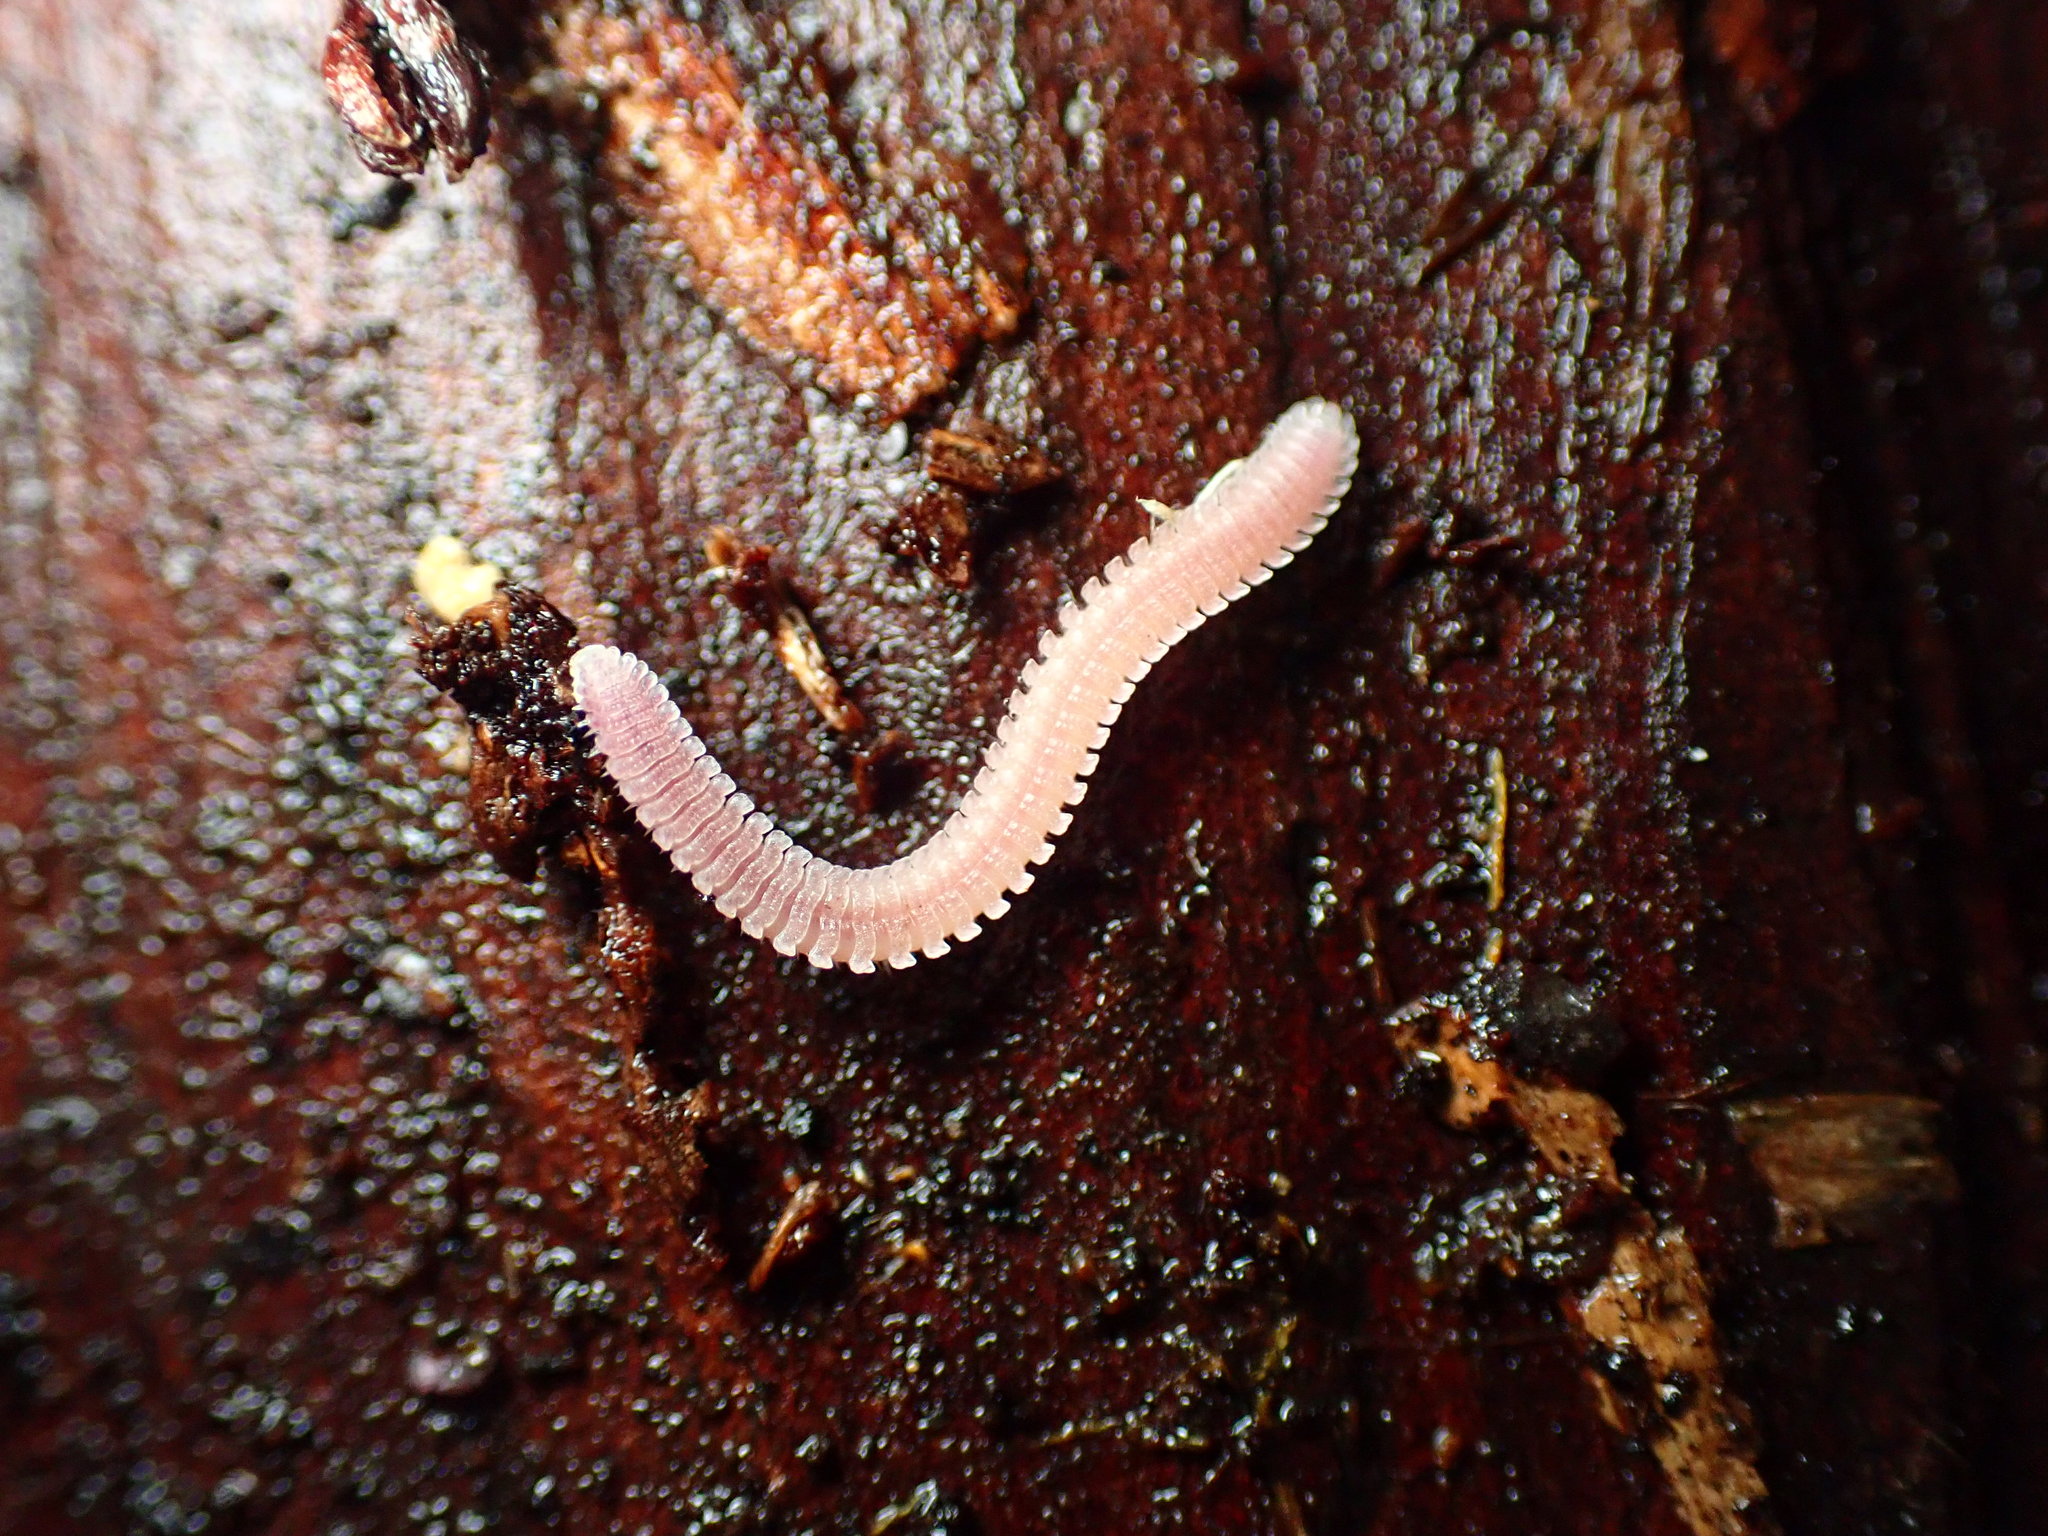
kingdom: Animalia
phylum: Arthropoda
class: Diplopoda
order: Platydesmida
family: Andrognathidae
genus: Gosodesmus
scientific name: Gosodesmus claremontus
